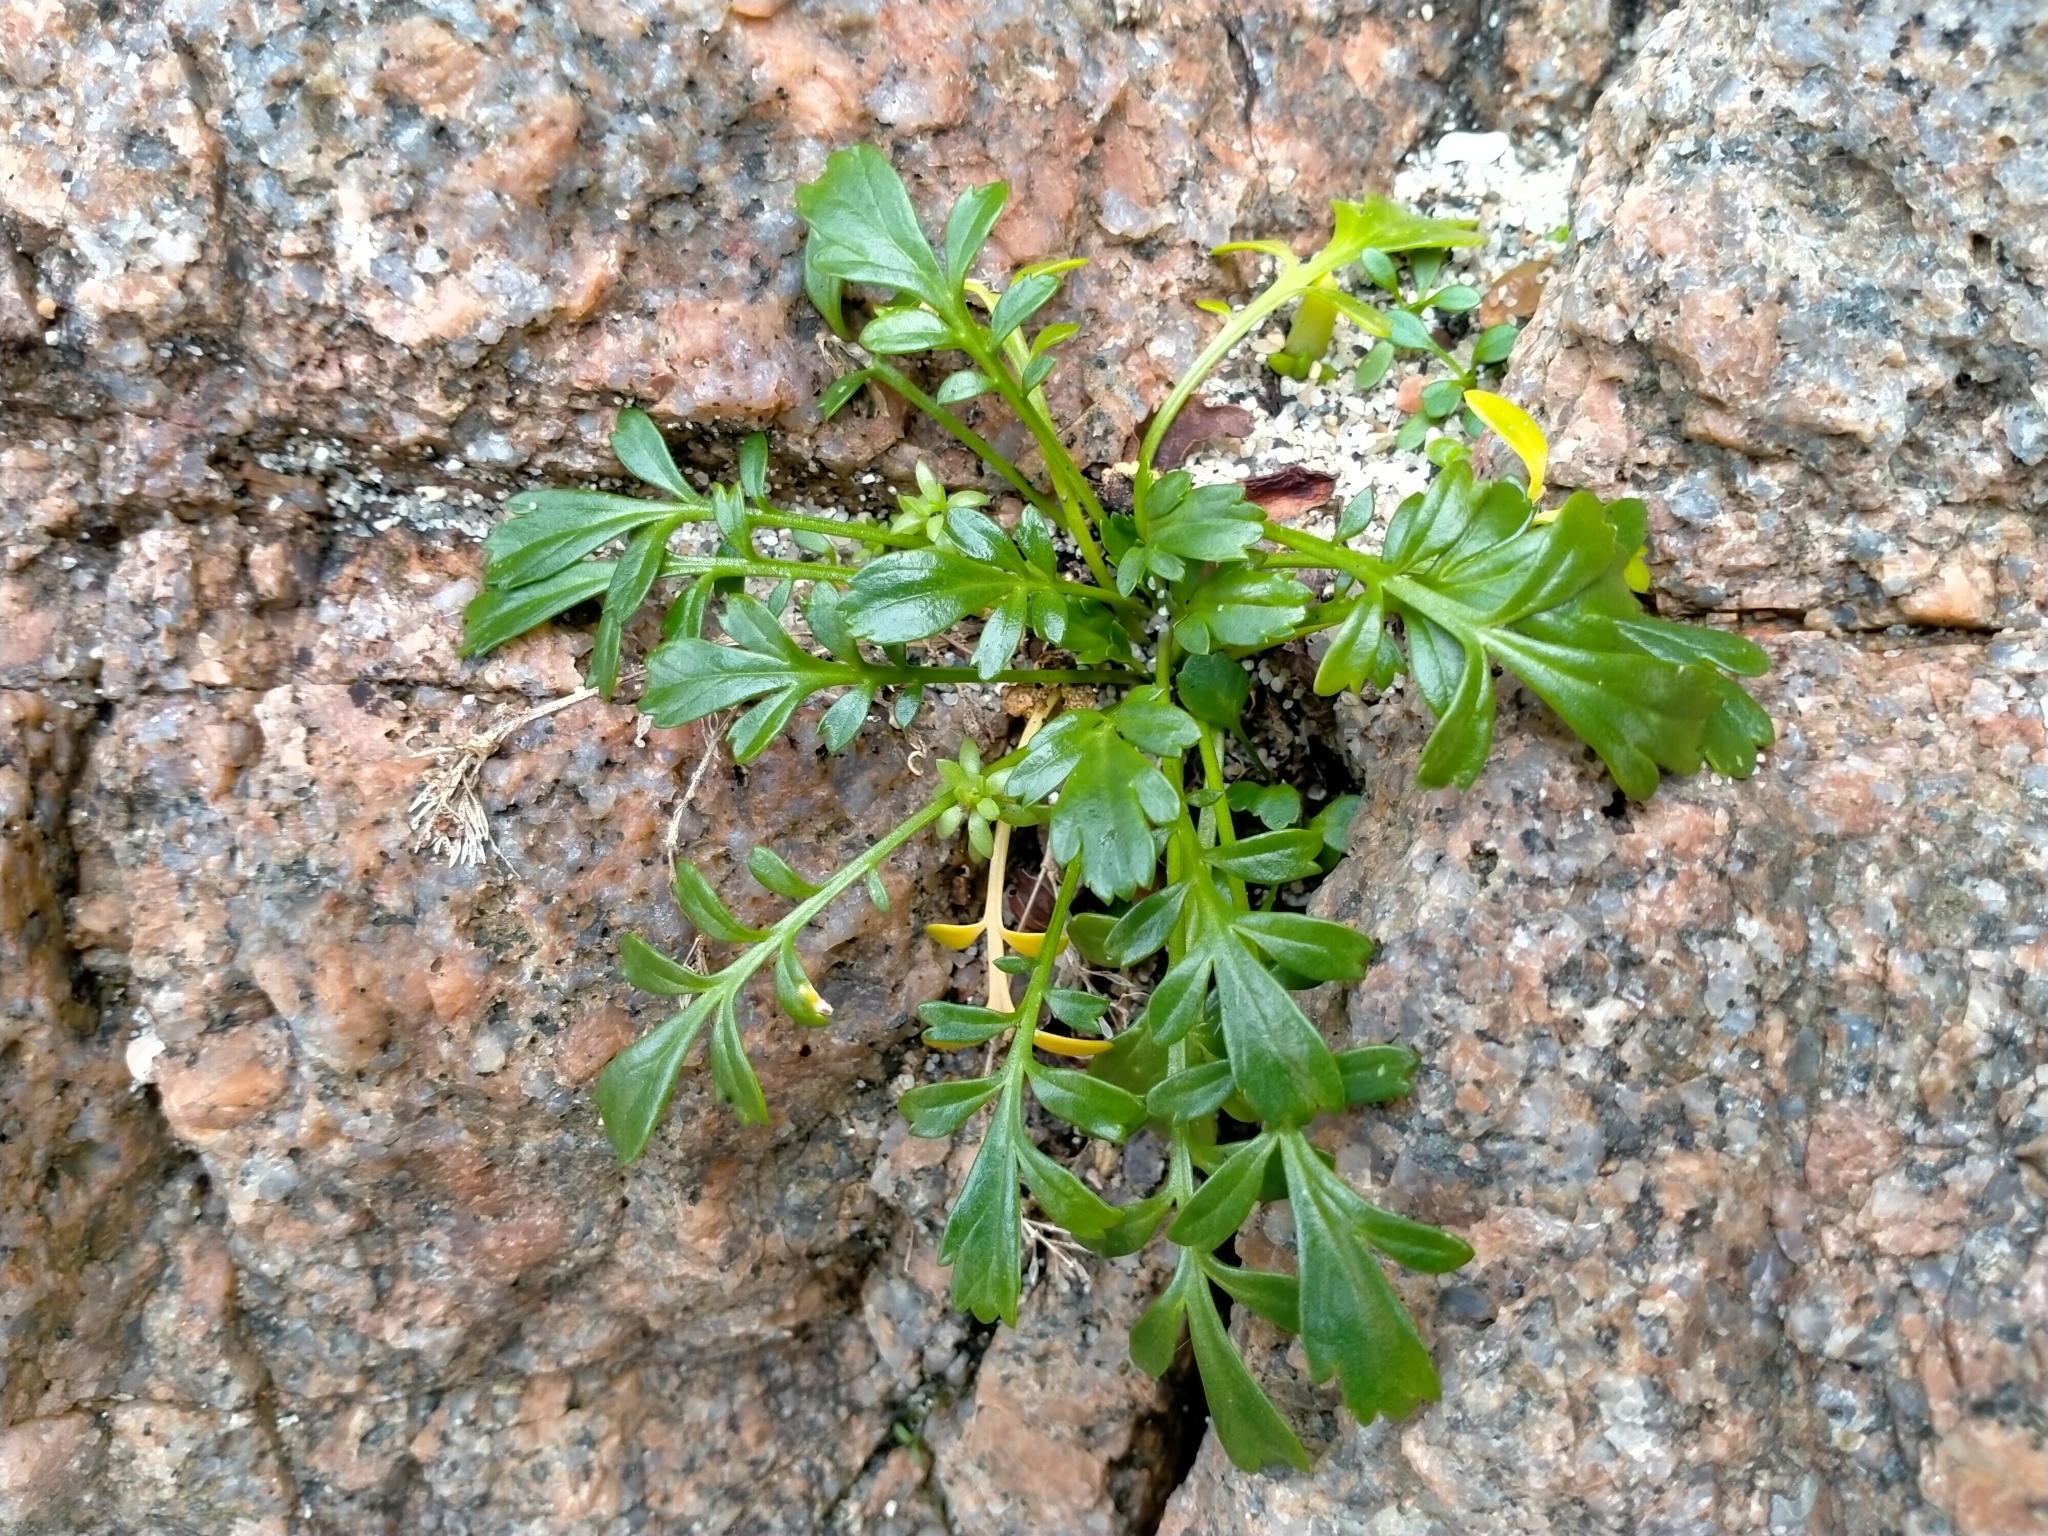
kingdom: Plantae
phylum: Tracheophyta
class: Magnoliopsida
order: Brassicales
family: Brassicaceae
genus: Lepidium
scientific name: Lepidium flexicaule
